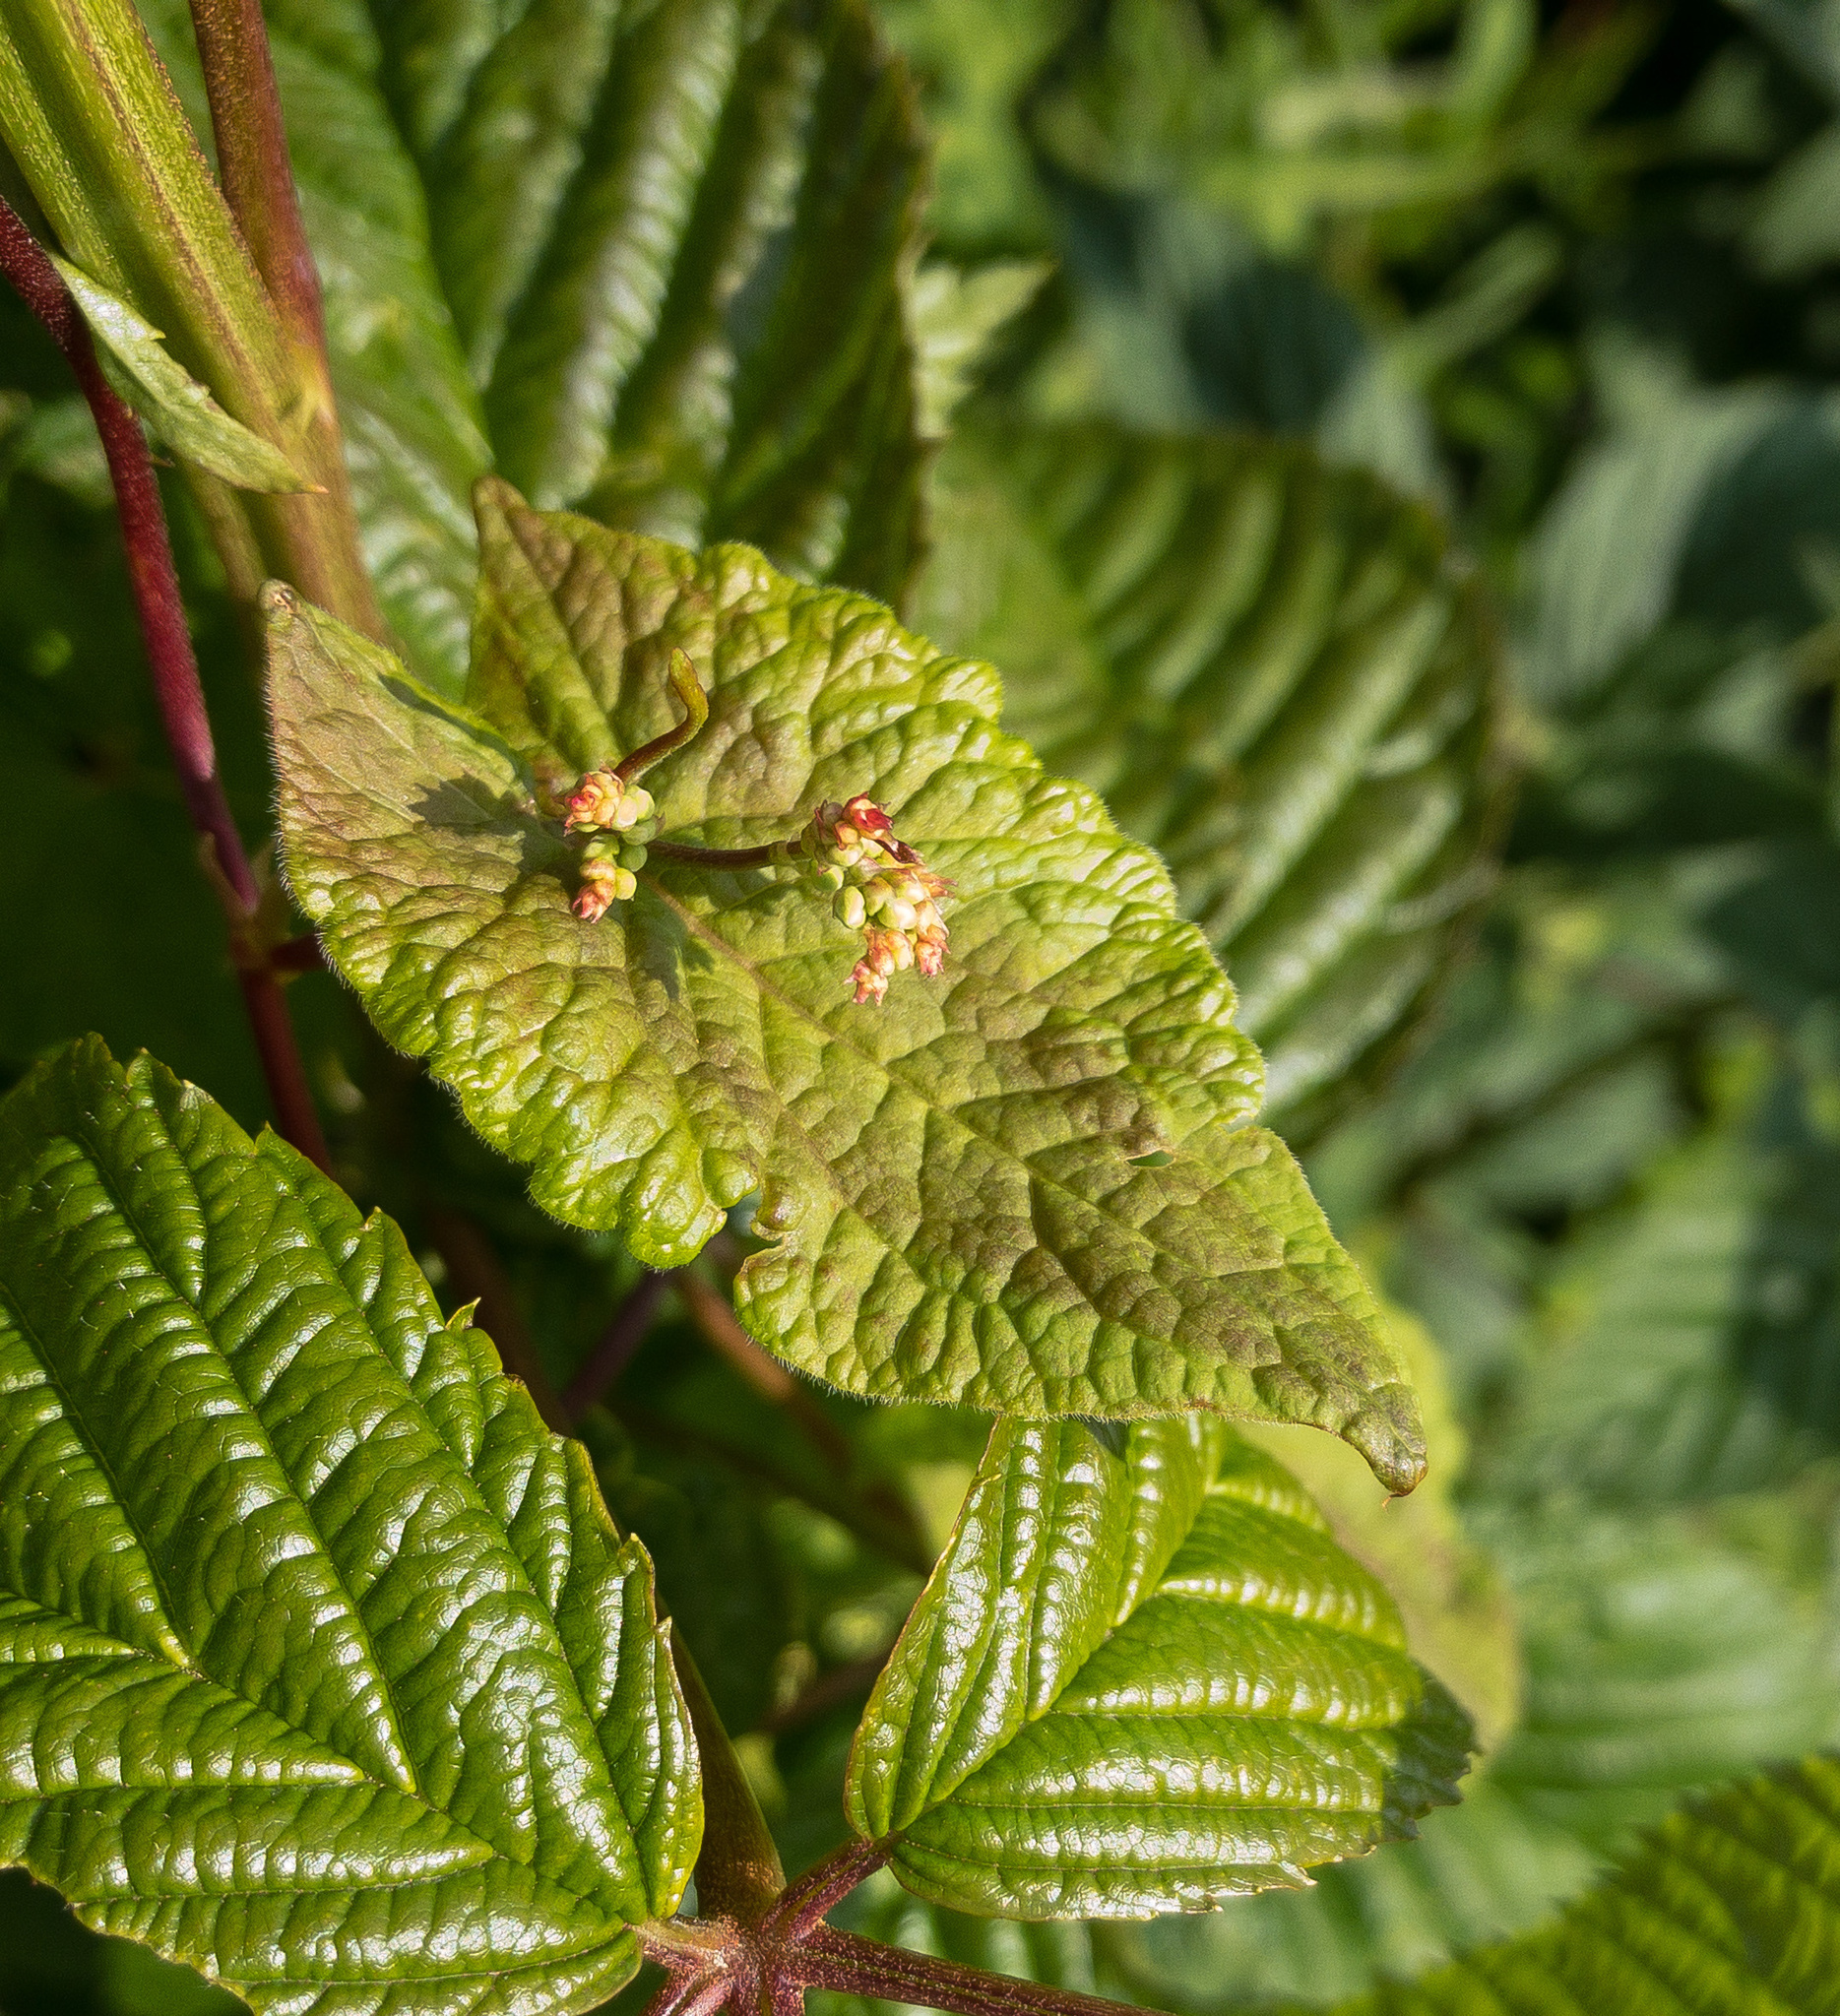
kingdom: Plantae
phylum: Tracheophyta
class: Magnoliopsida
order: Caryophyllales
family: Polygonaceae
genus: Parogonum
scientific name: Parogonum ciliinode
